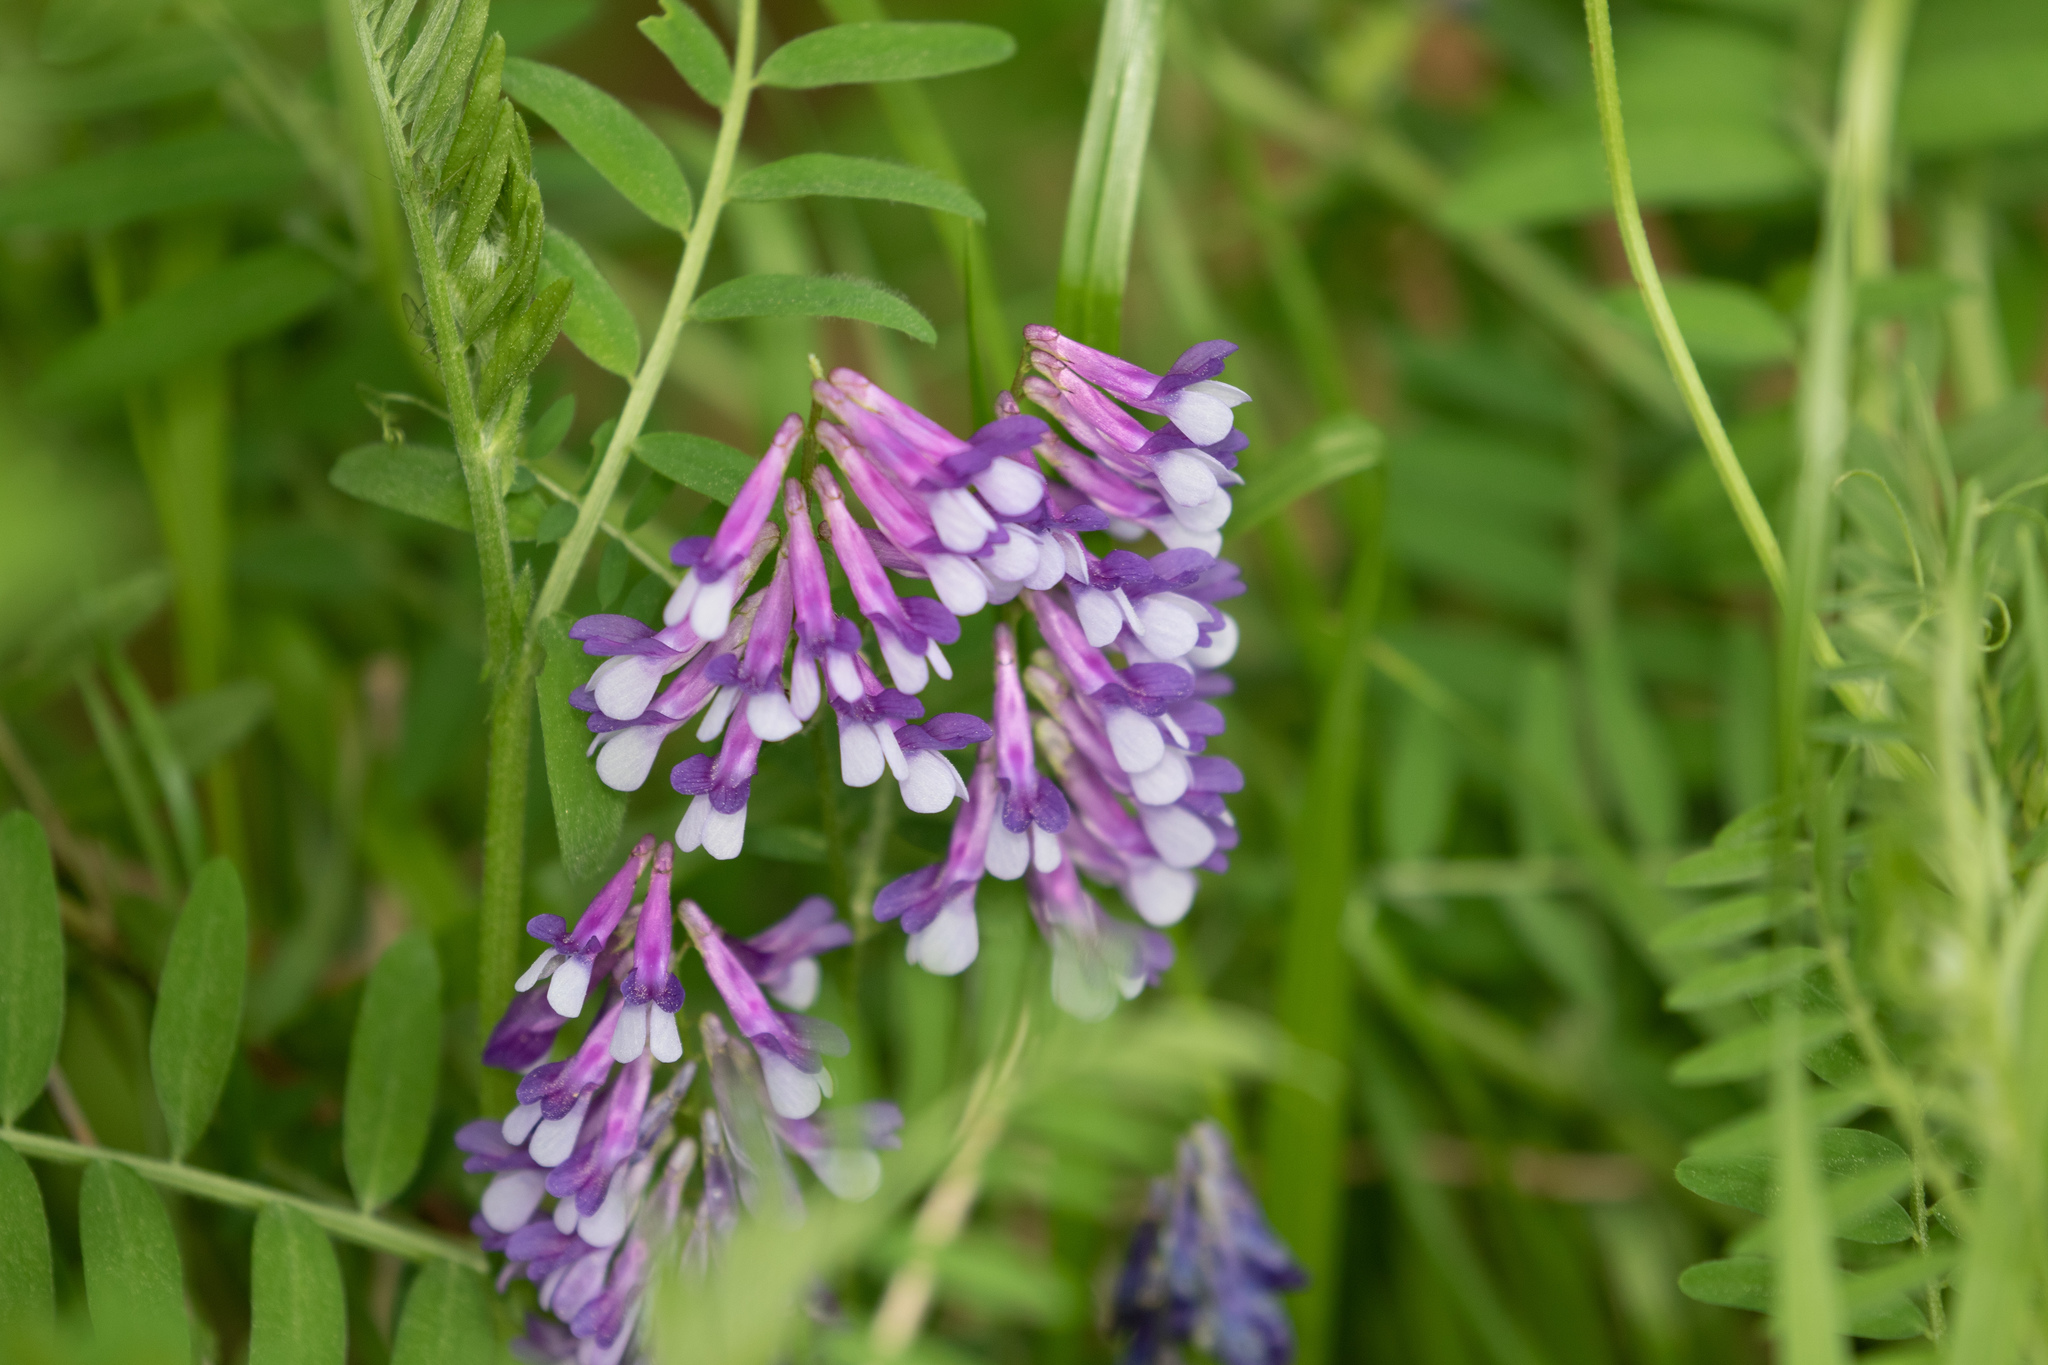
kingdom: Plantae
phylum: Tracheophyta
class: Magnoliopsida
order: Fabales
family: Fabaceae
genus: Vicia
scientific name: Vicia villosa
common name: Fodder vetch
